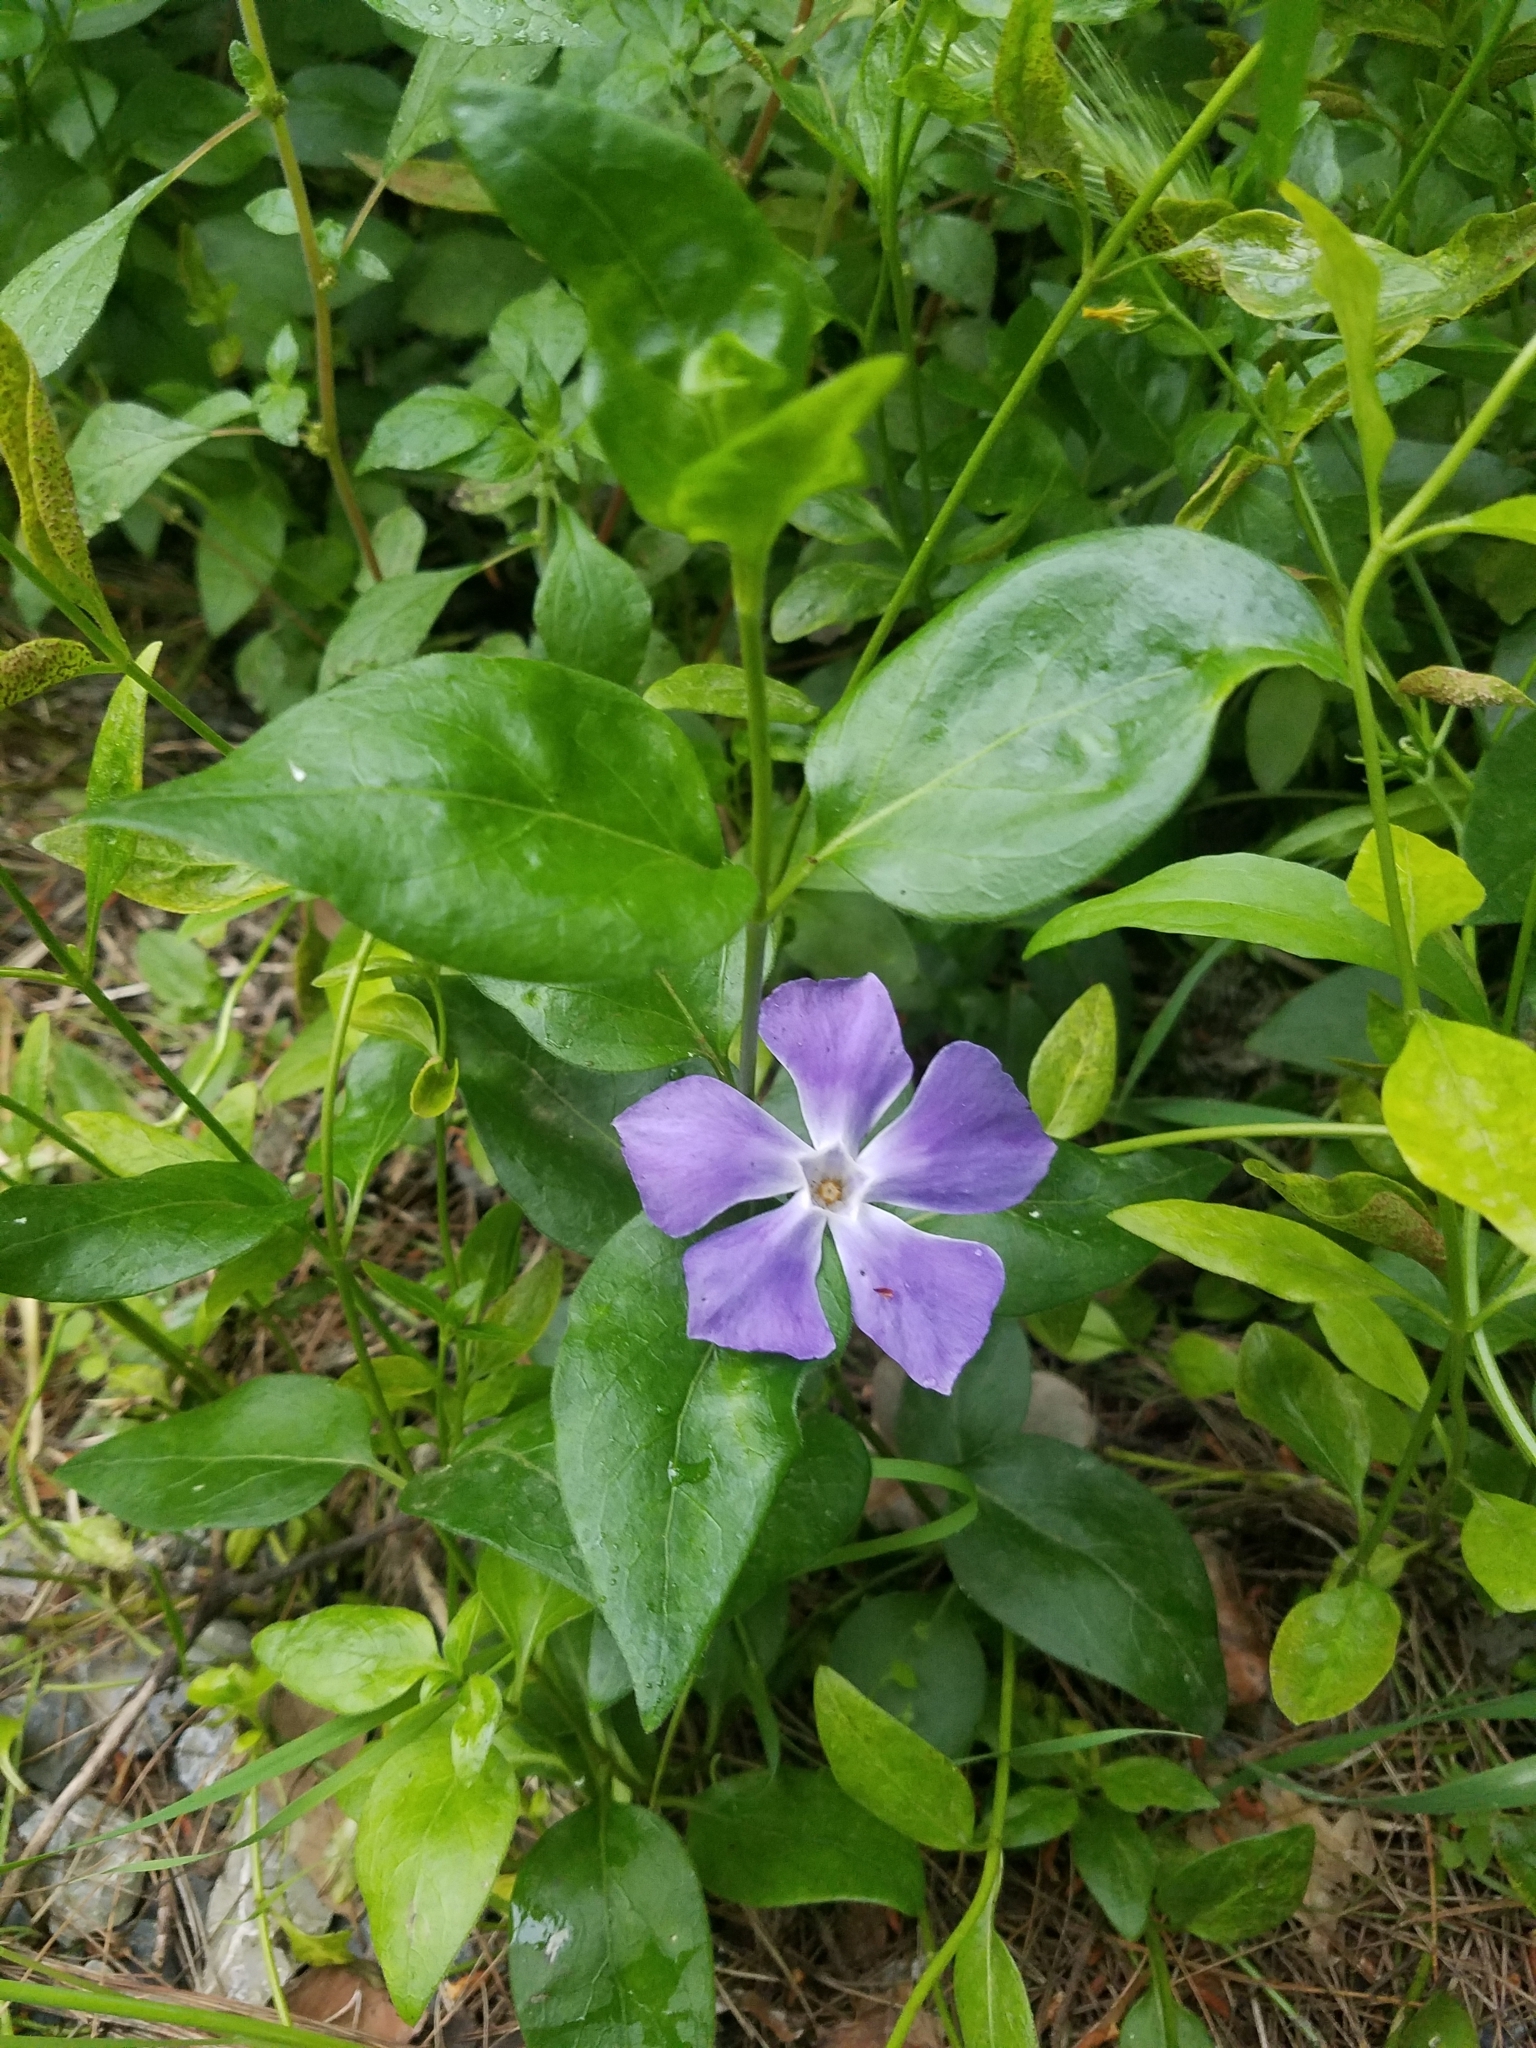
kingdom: Plantae
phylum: Tracheophyta
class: Magnoliopsida
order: Gentianales
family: Apocynaceae
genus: Vinca
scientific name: Vinca major
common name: Greater periwinkle
